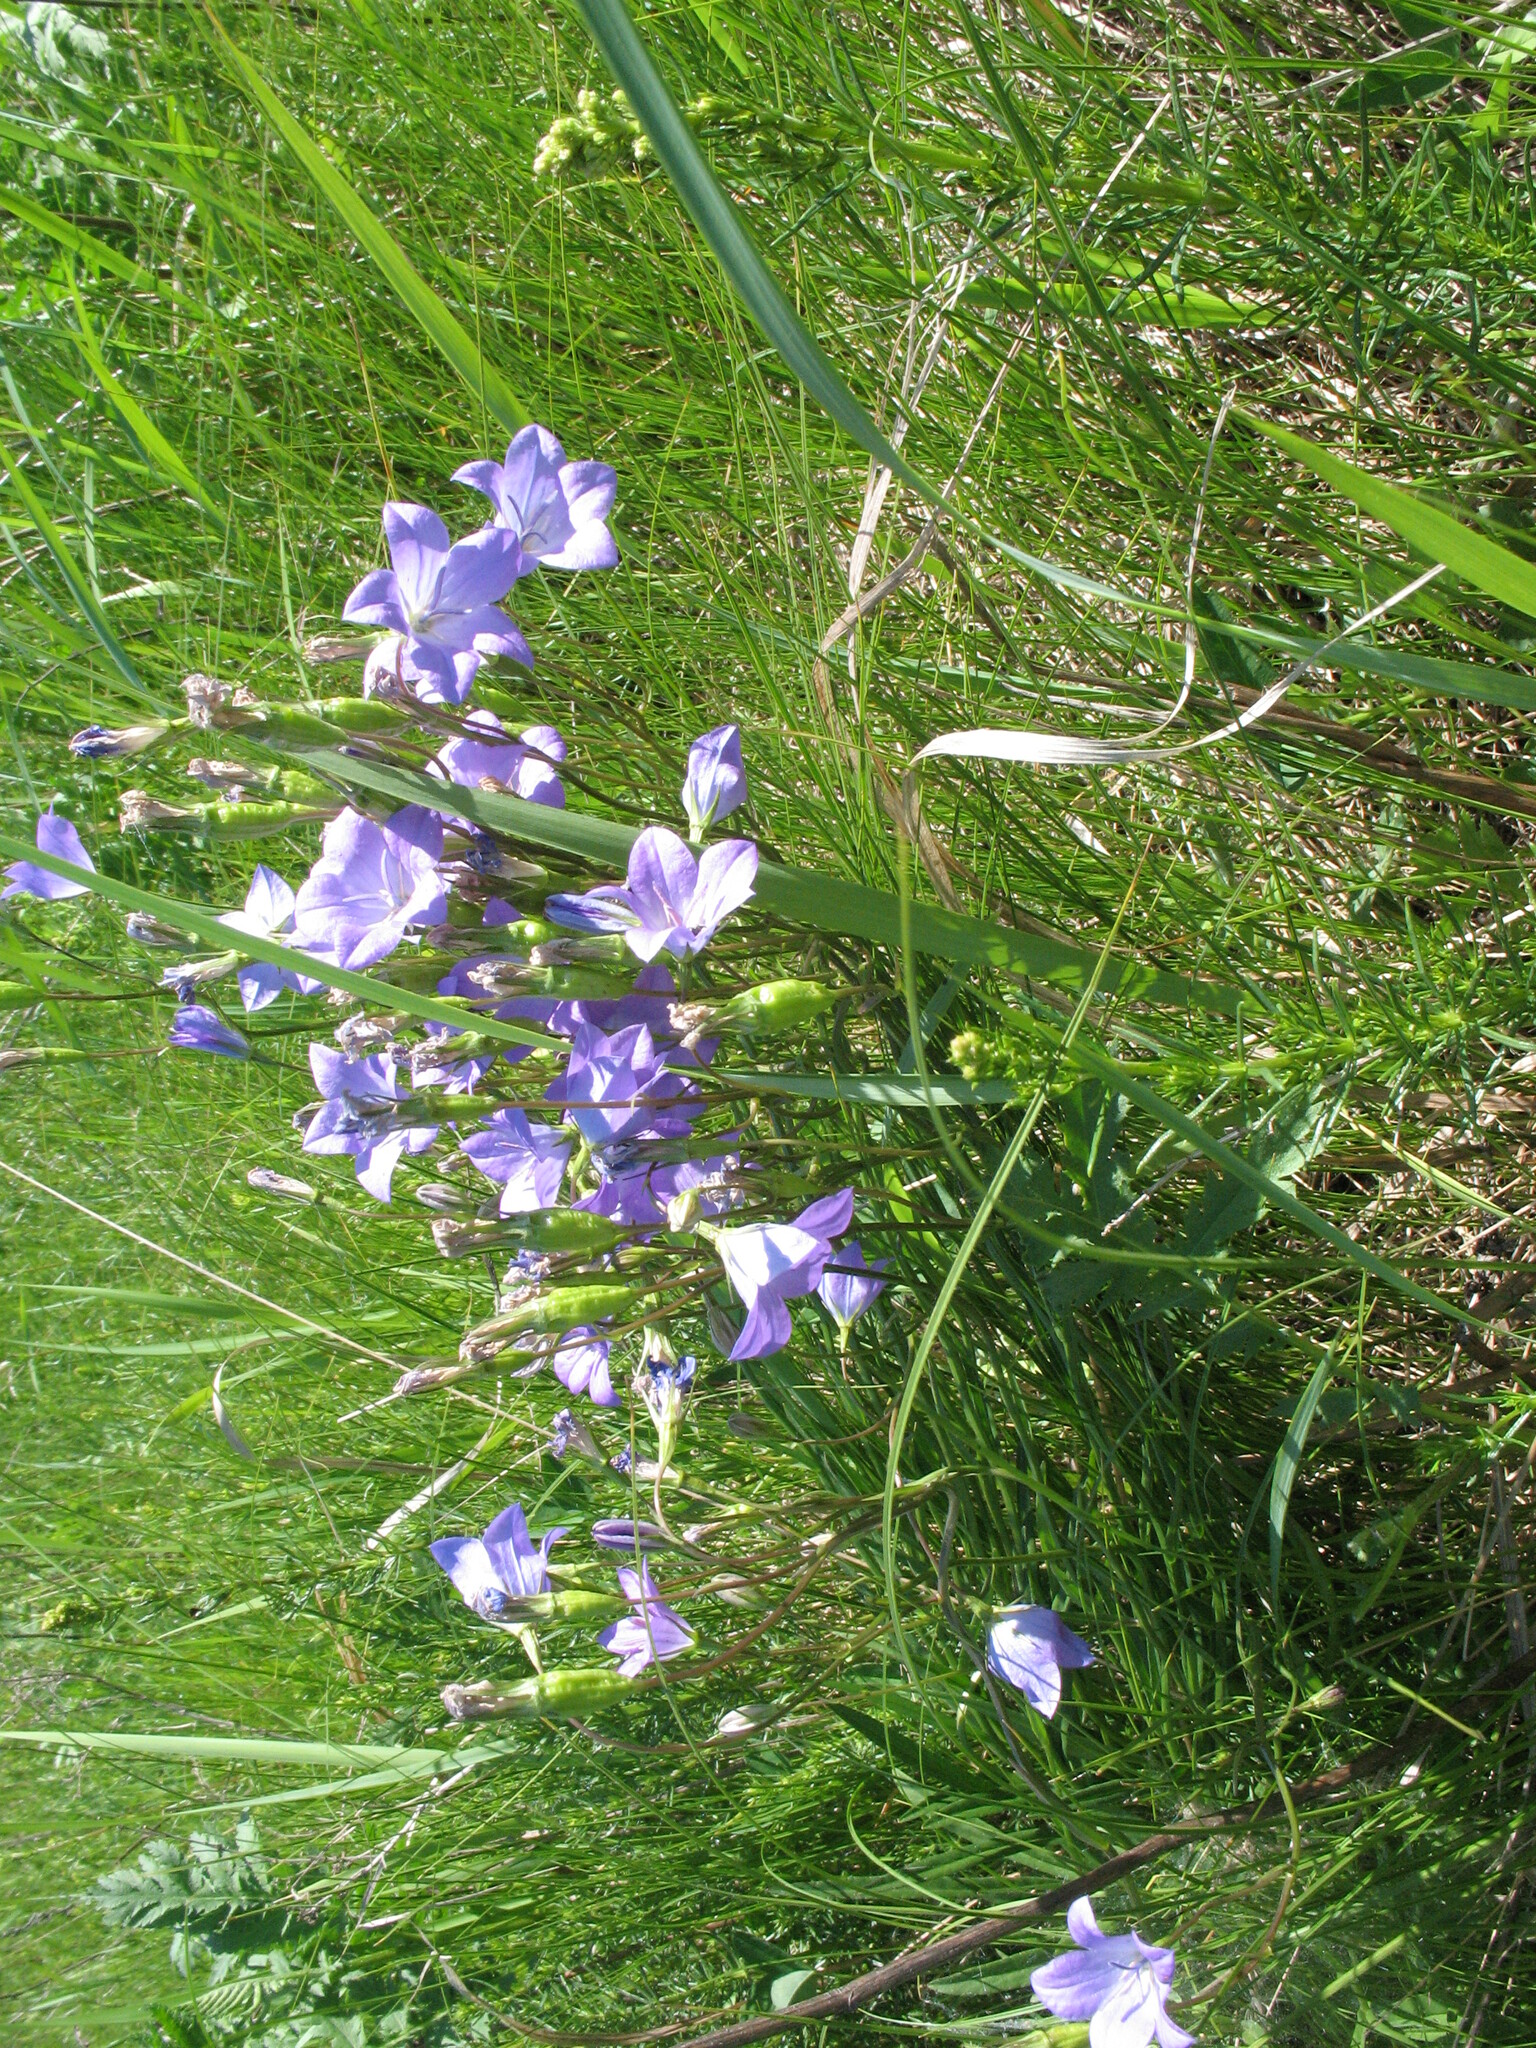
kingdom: Plantae
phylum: Tracheophyta
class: Magnoliopsida
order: Asterales
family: Campanulaceae
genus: Campanula
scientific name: Campanula stevenii
